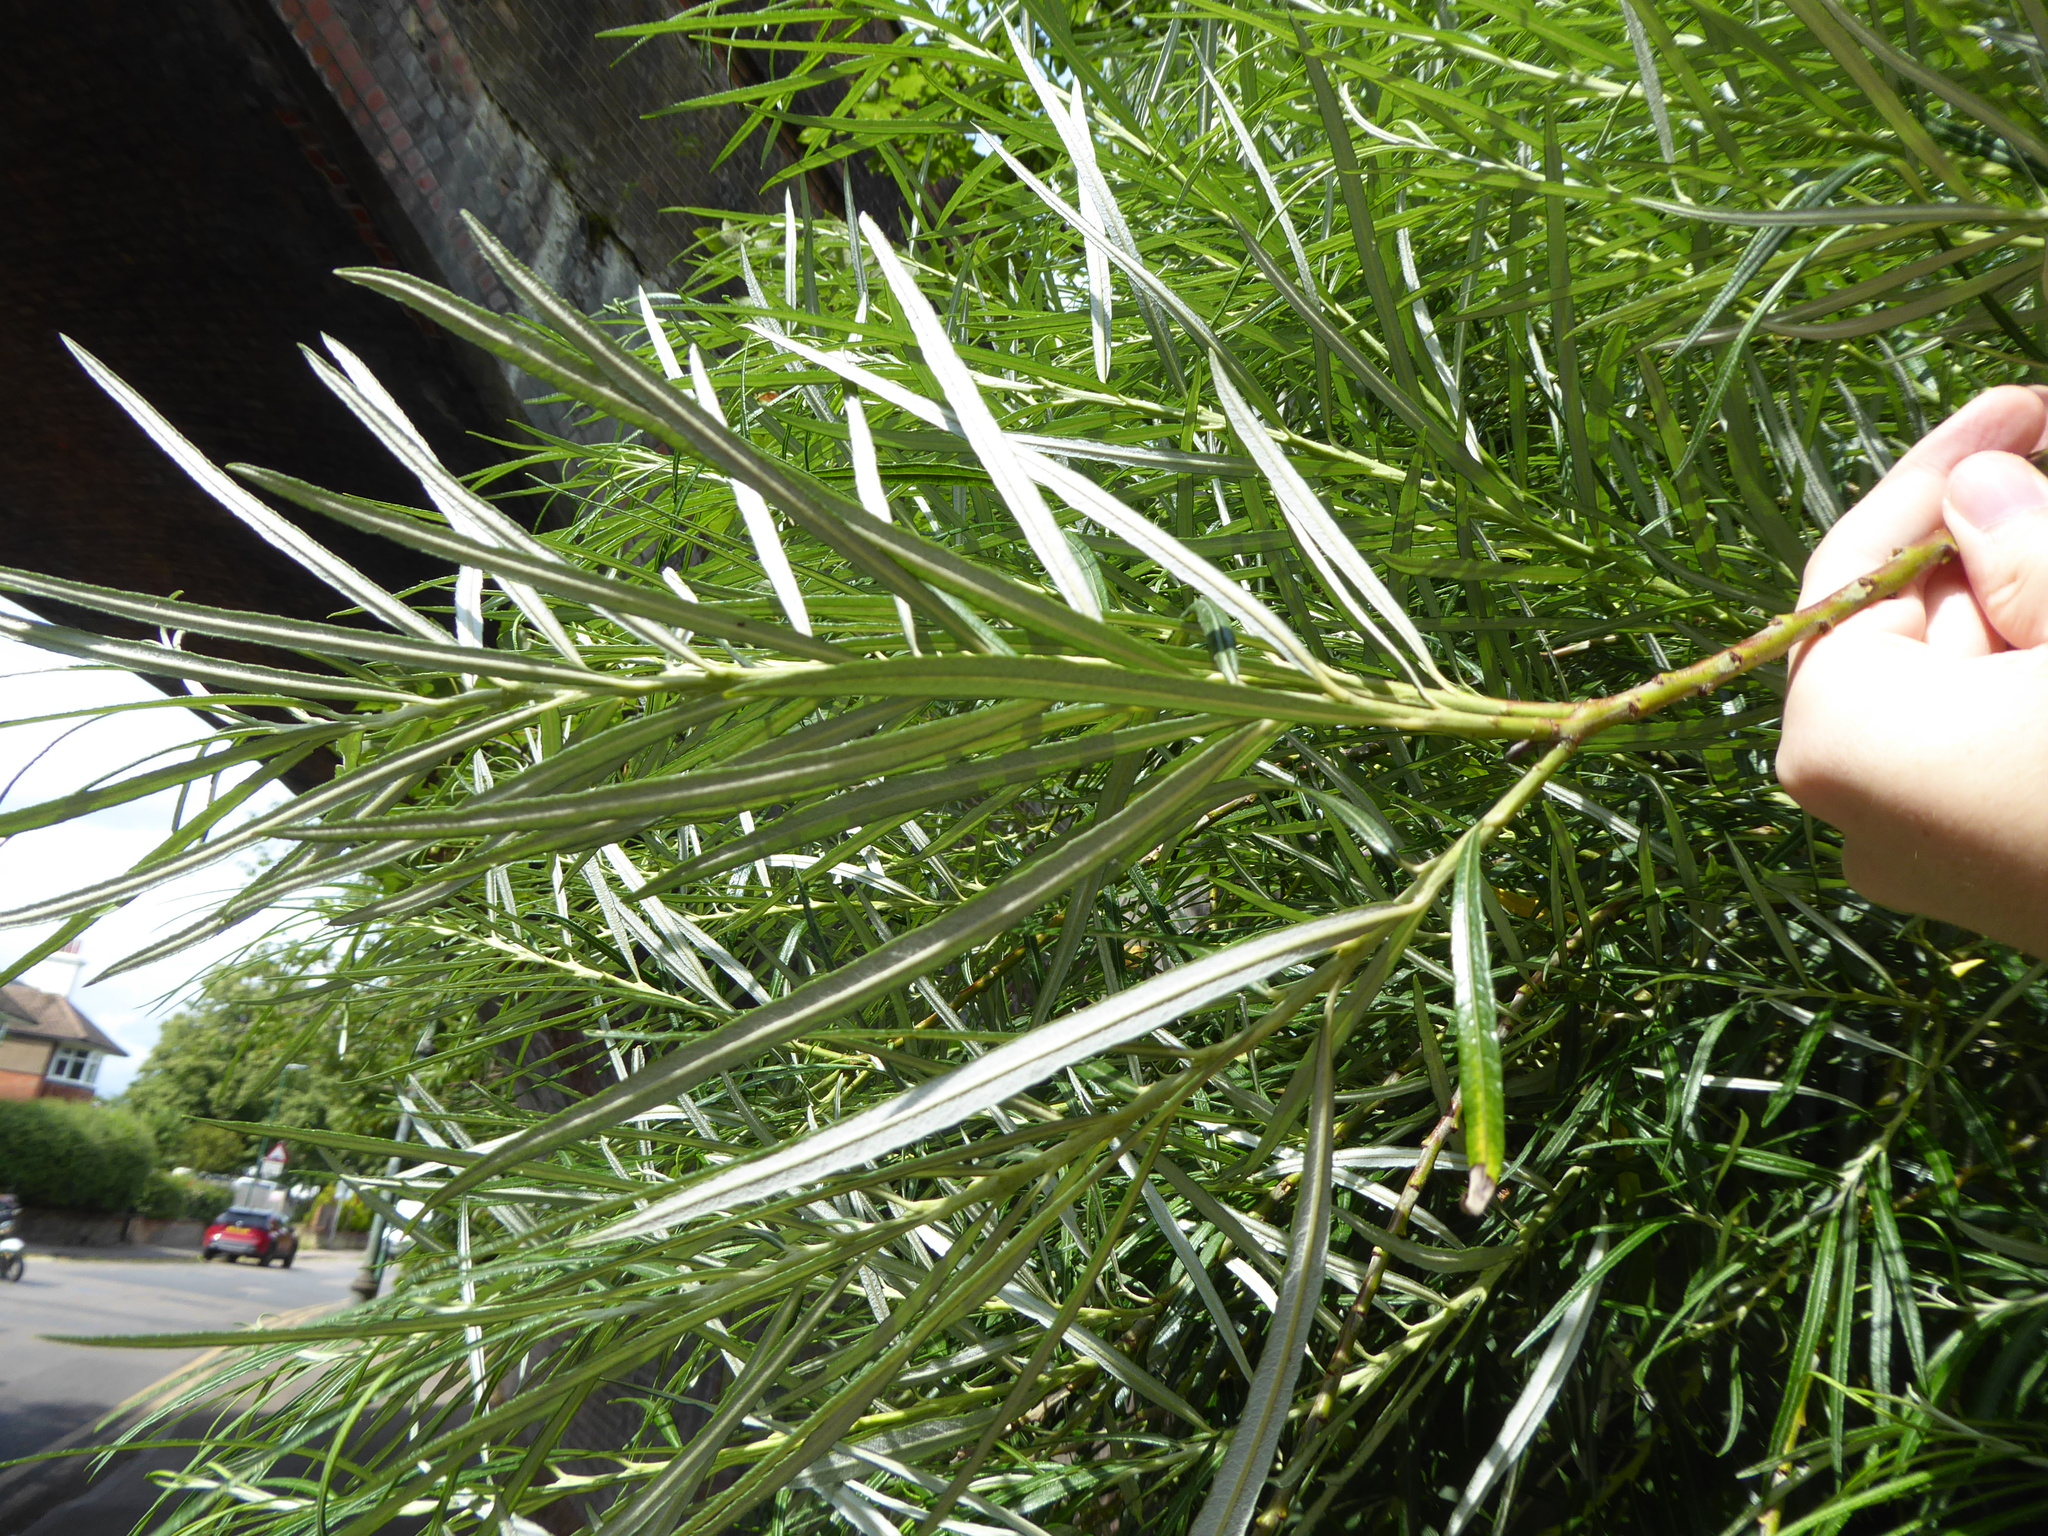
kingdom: Plantae
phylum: Tracheophyta
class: Magnoliopsida
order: Malpighiales
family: Salicaceae
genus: Salix
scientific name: Salix eleagnos
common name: Elaeagnus willow
